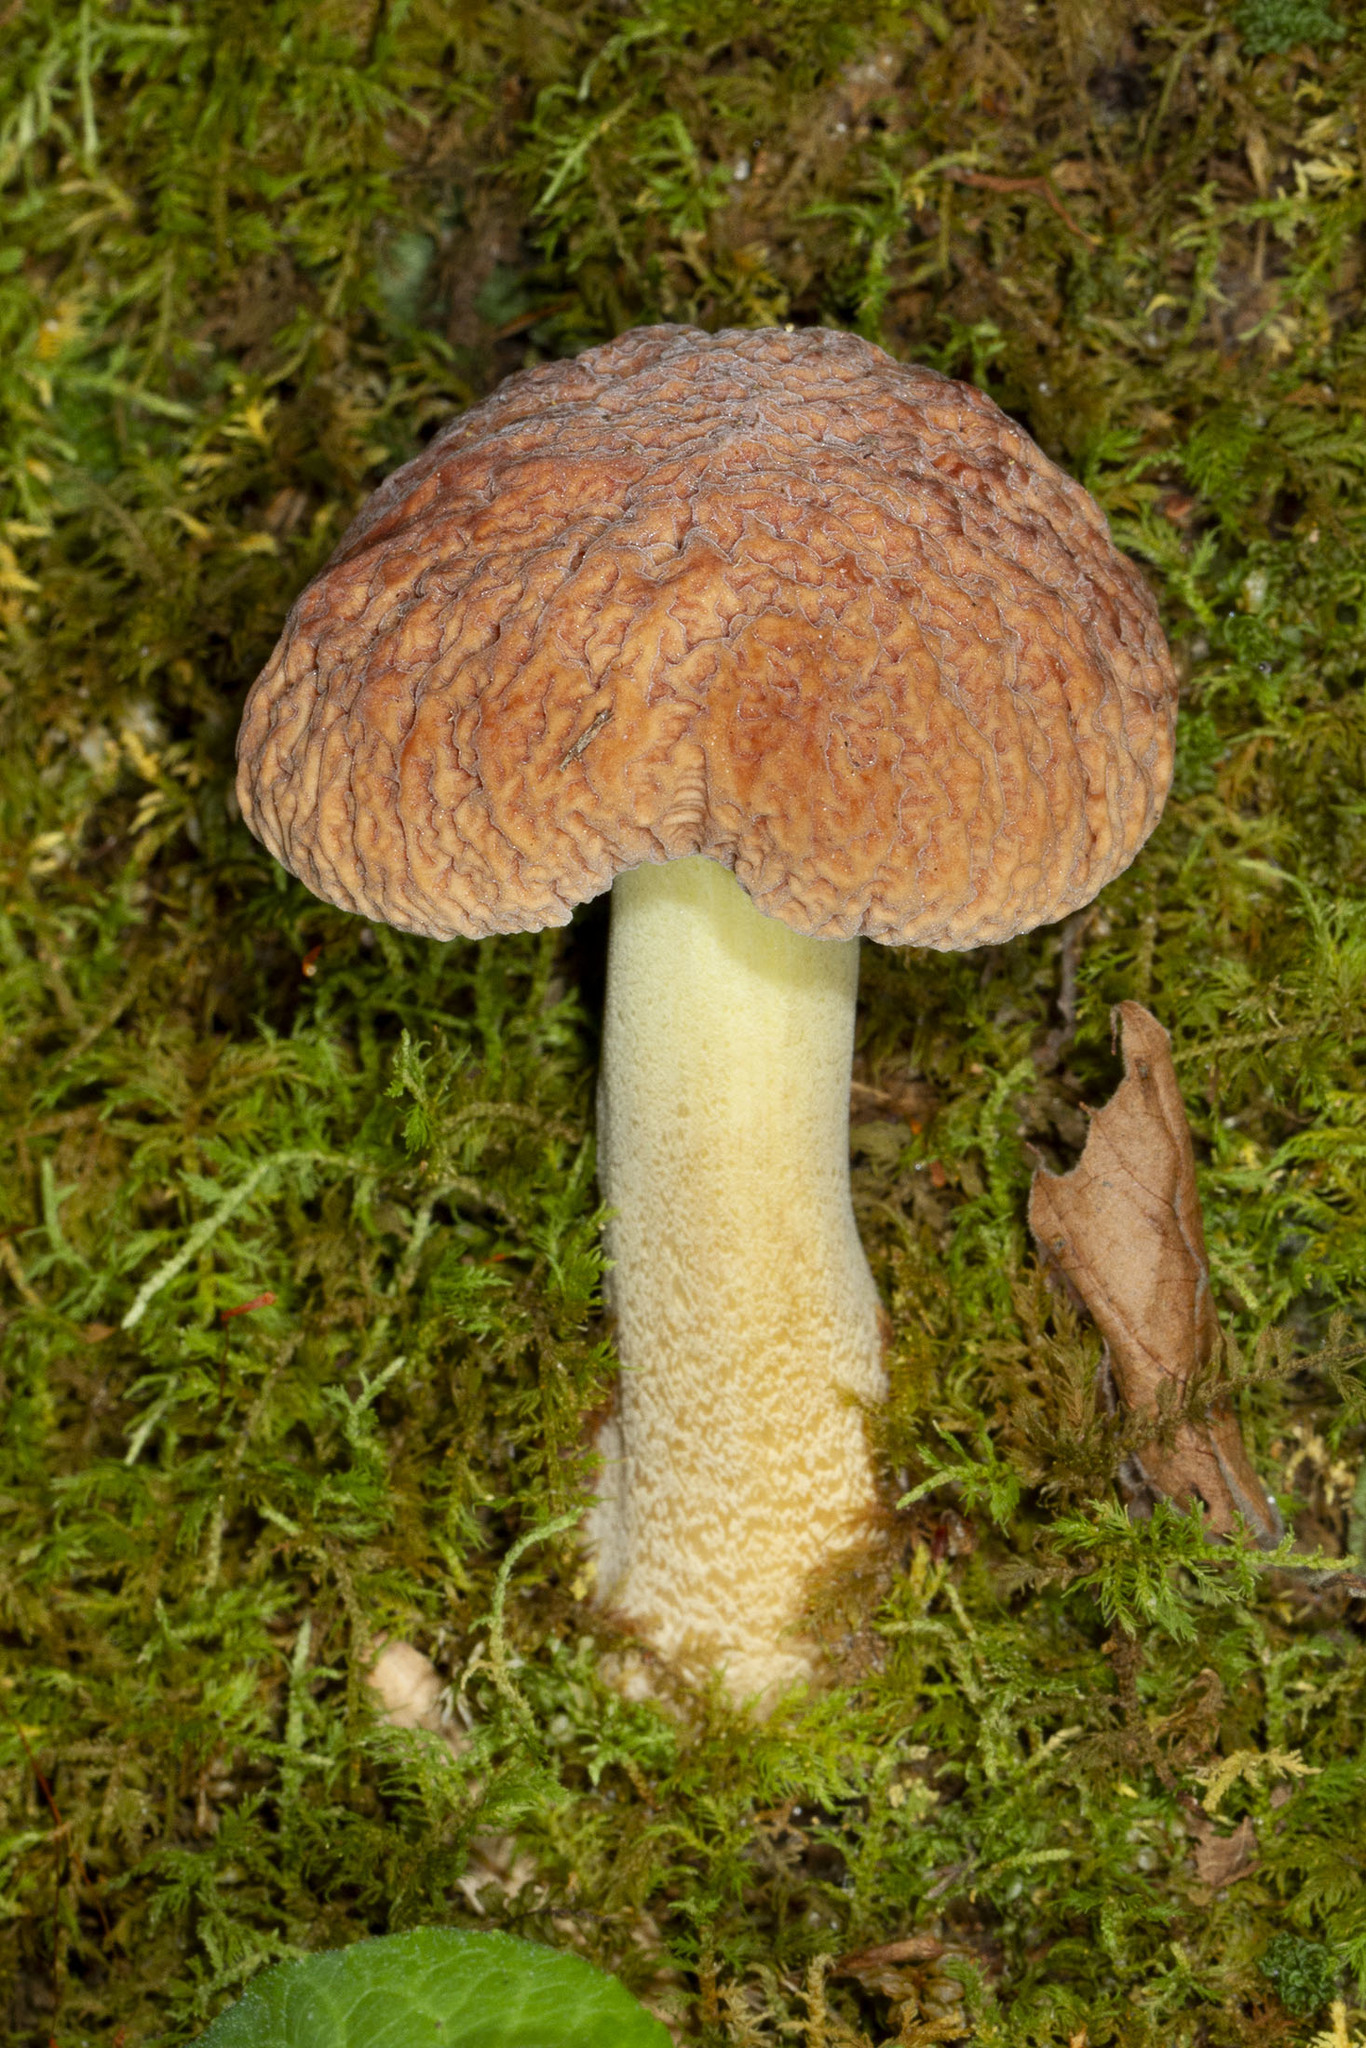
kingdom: Fungi
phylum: Basidiomycota
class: Agaricomycetes
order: Boletales
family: Boletaceae
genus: Hemileccinum
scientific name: Hemileccinum hortonii
